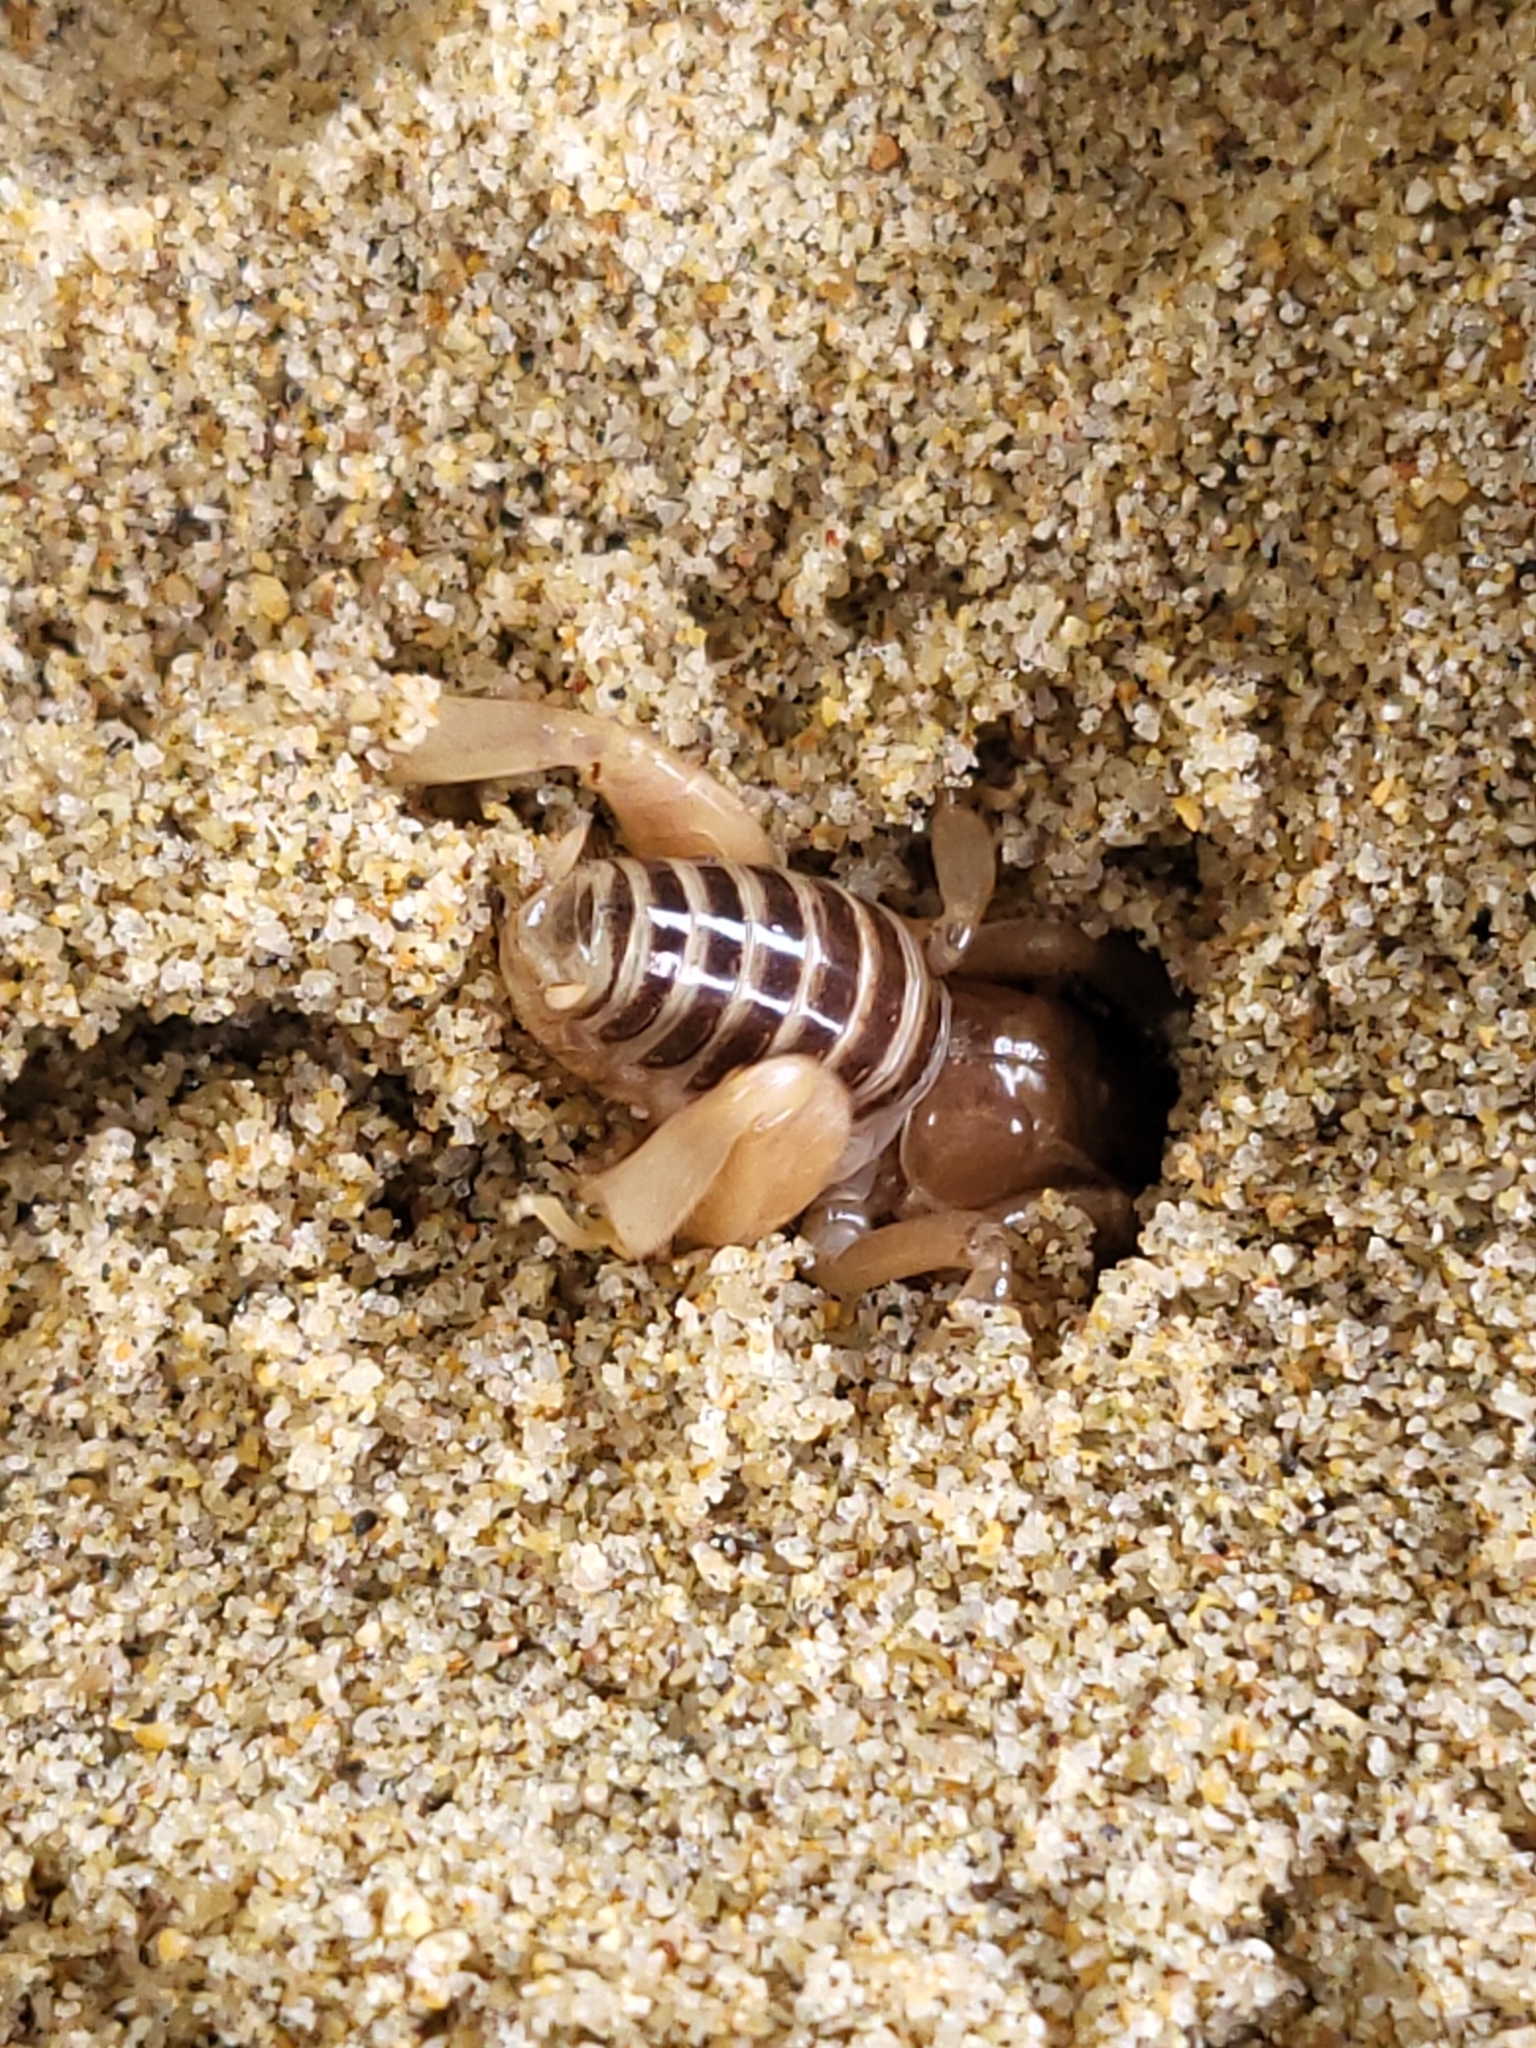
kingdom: Animalia
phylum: Arthropoda
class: Insecta
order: Orthoptera
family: Stenopelmatidae
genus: Ammopelmatus
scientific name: Ammopelmatus muwu
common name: Port conception jerusalem cricket
